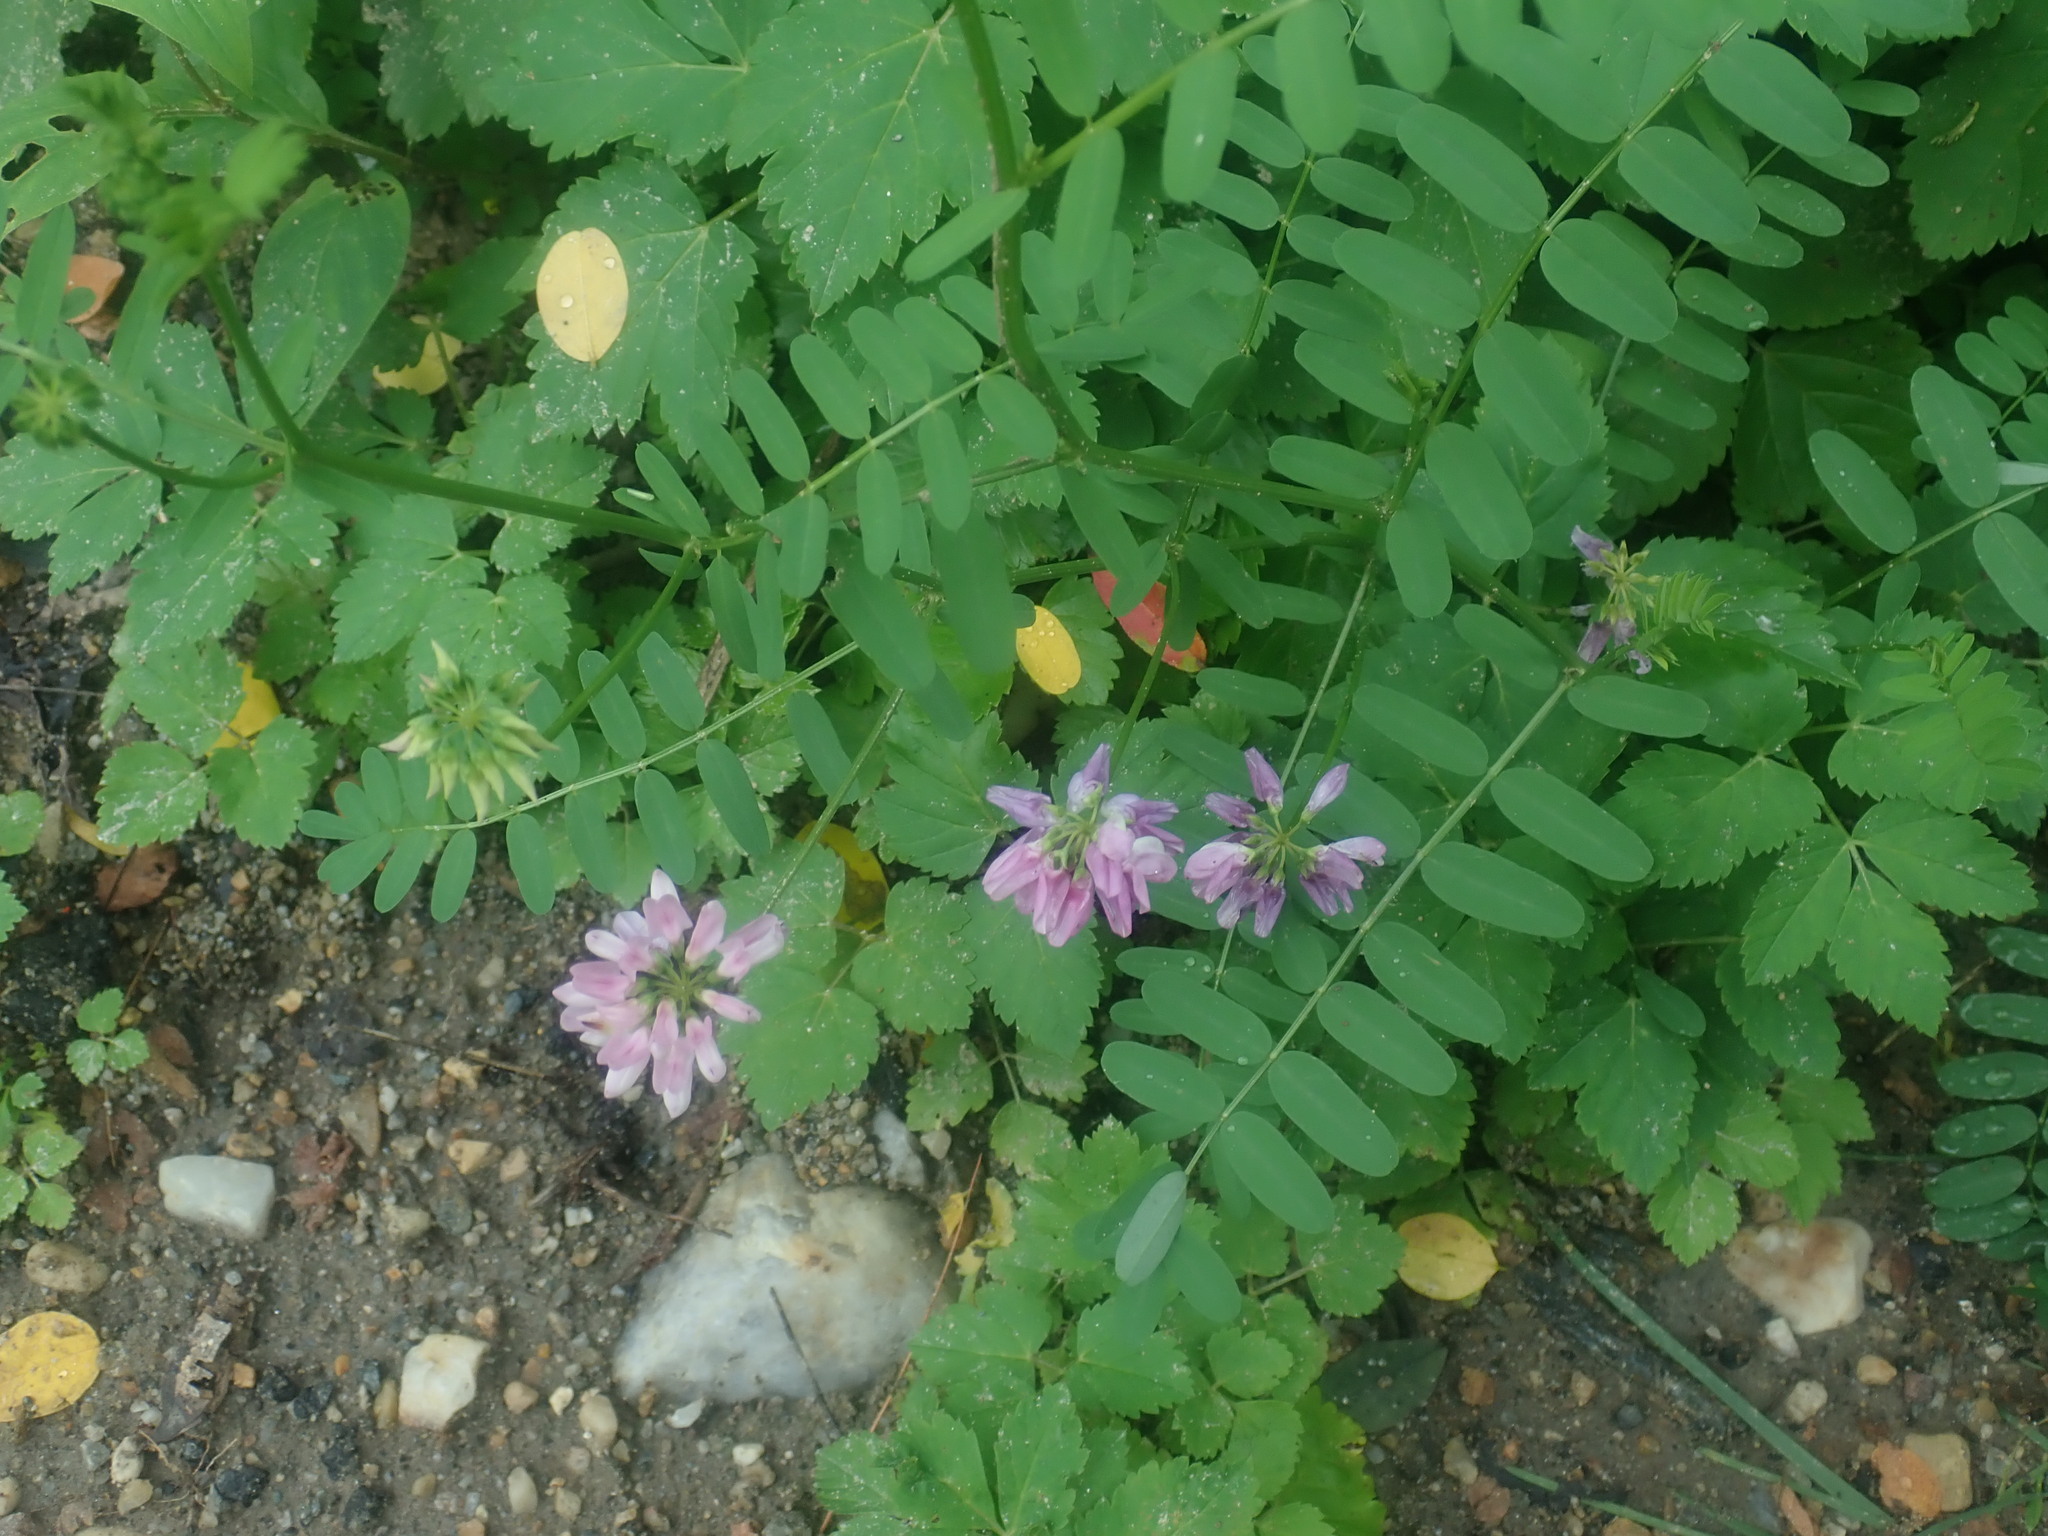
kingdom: Plantae
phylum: Tracheophyta
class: Magnoliopsida
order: Fabales
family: Fabaceae
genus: Coronilla
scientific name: Coronilla varia
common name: Crownvetch
